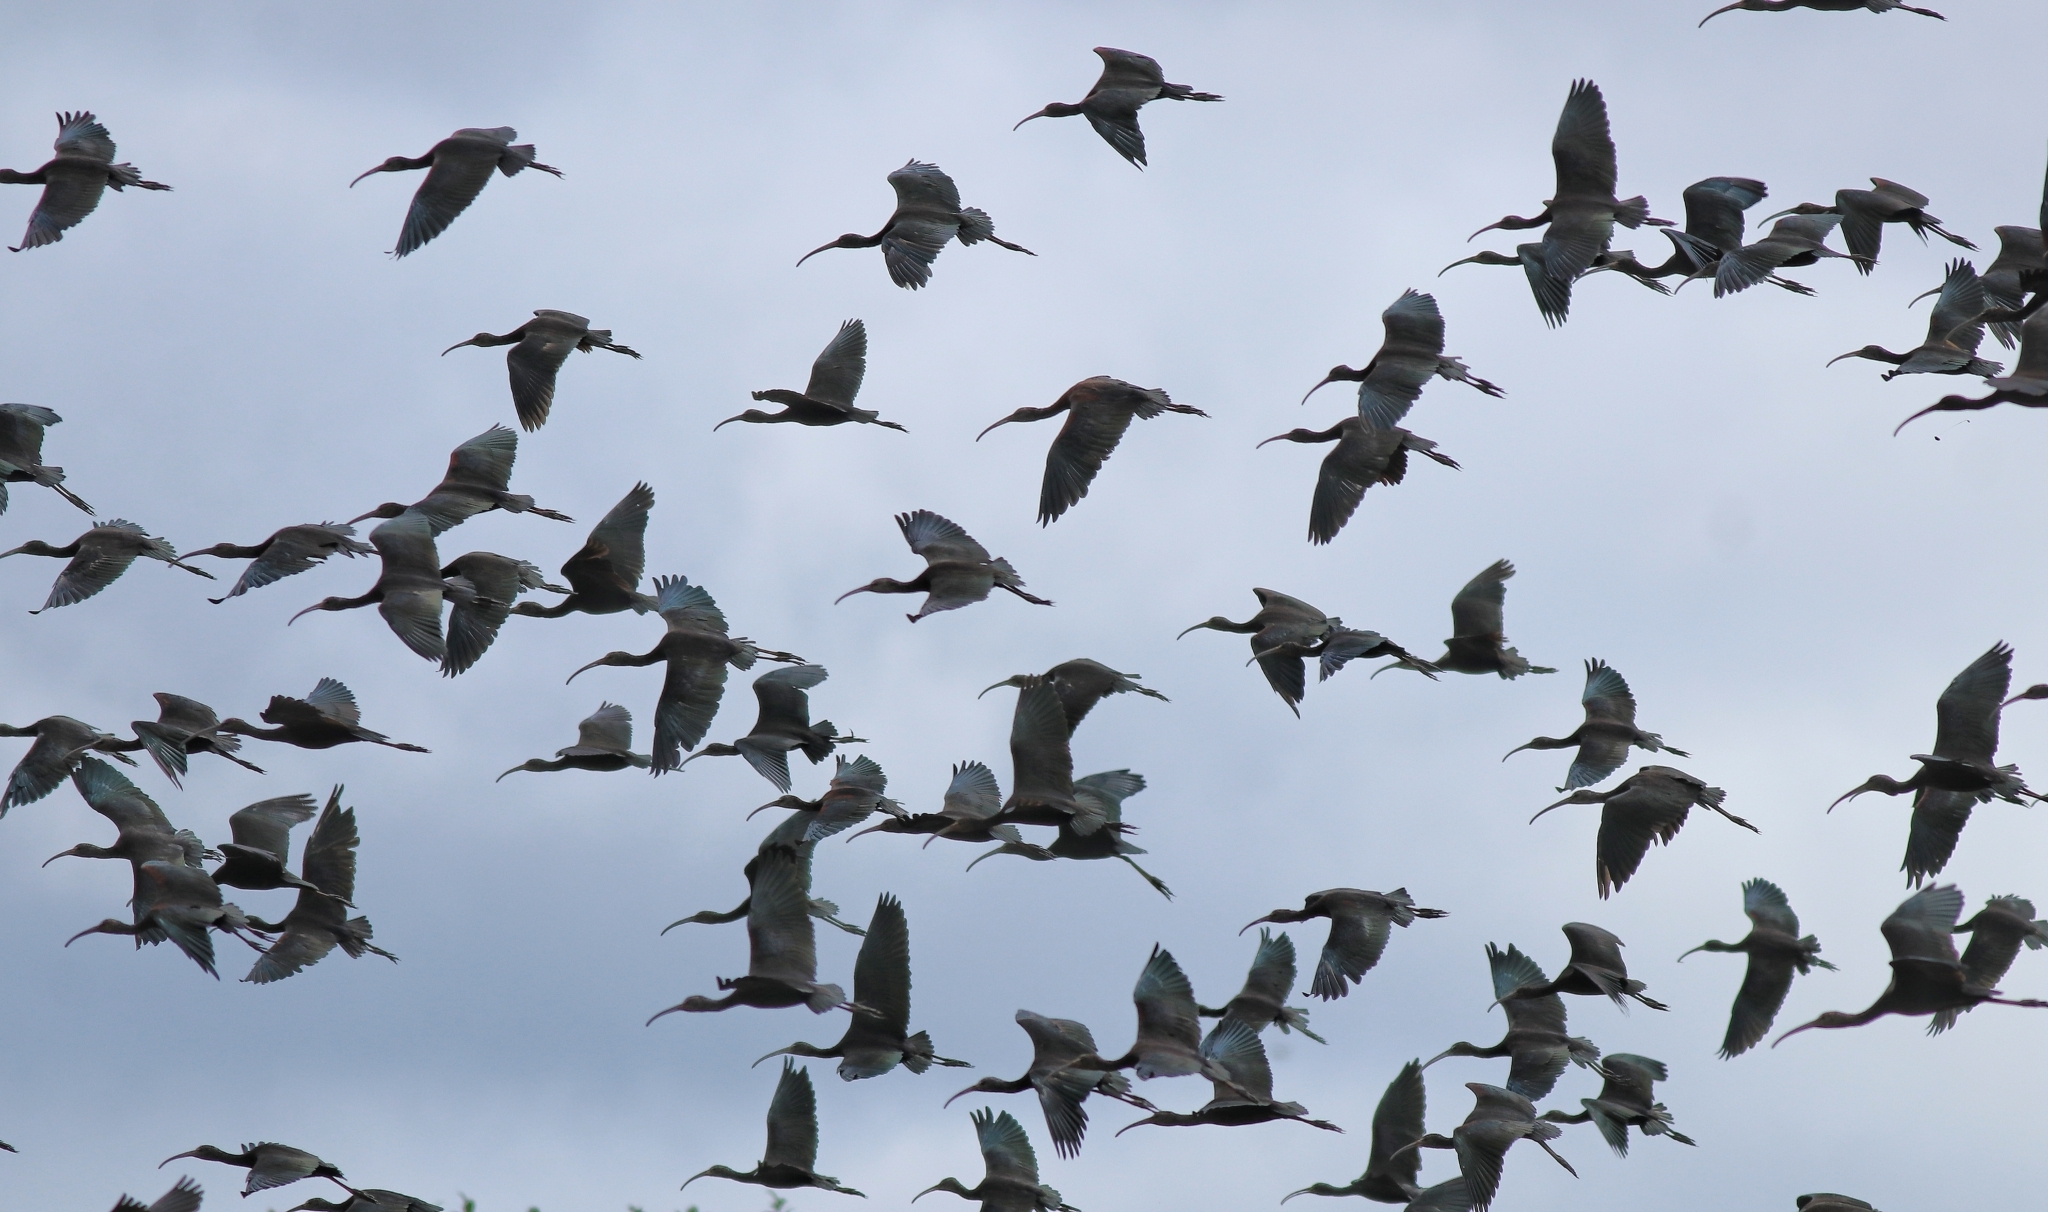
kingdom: Animalia
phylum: Chordata
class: Aves
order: Pelecaniformes
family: Threskiornithidae
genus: Plegadis
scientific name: Plegadis falcinellus
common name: Glossy ibis
